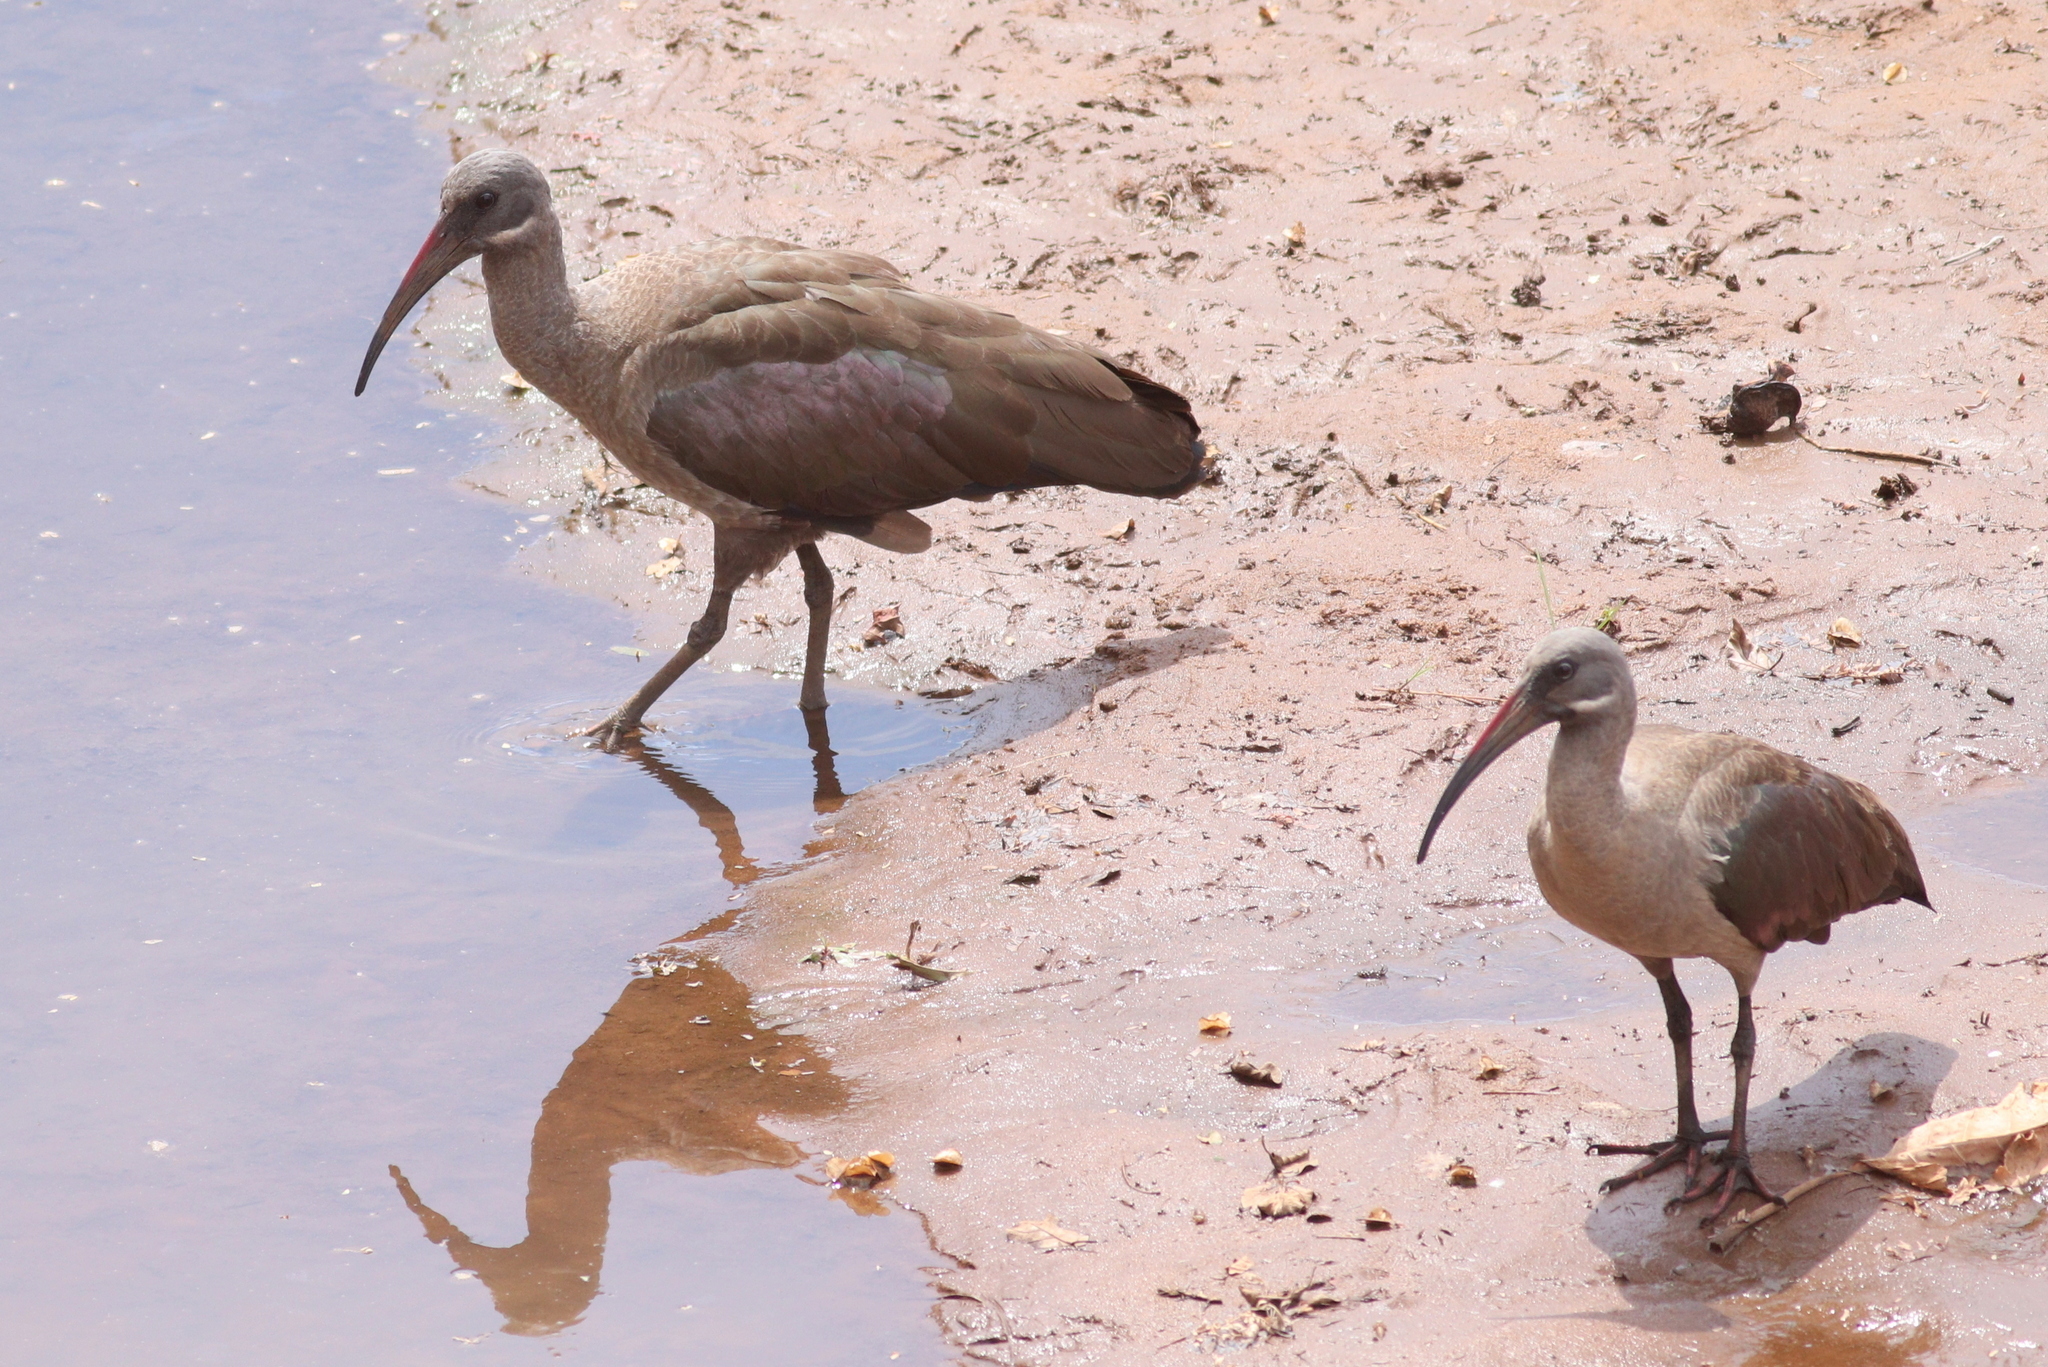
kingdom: Animalia
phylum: Chordata
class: Aves
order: Pelecaniformes
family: Threskiornithidae
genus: Bostrychia
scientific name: Bostrychia hagedash
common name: Hadada ibis
